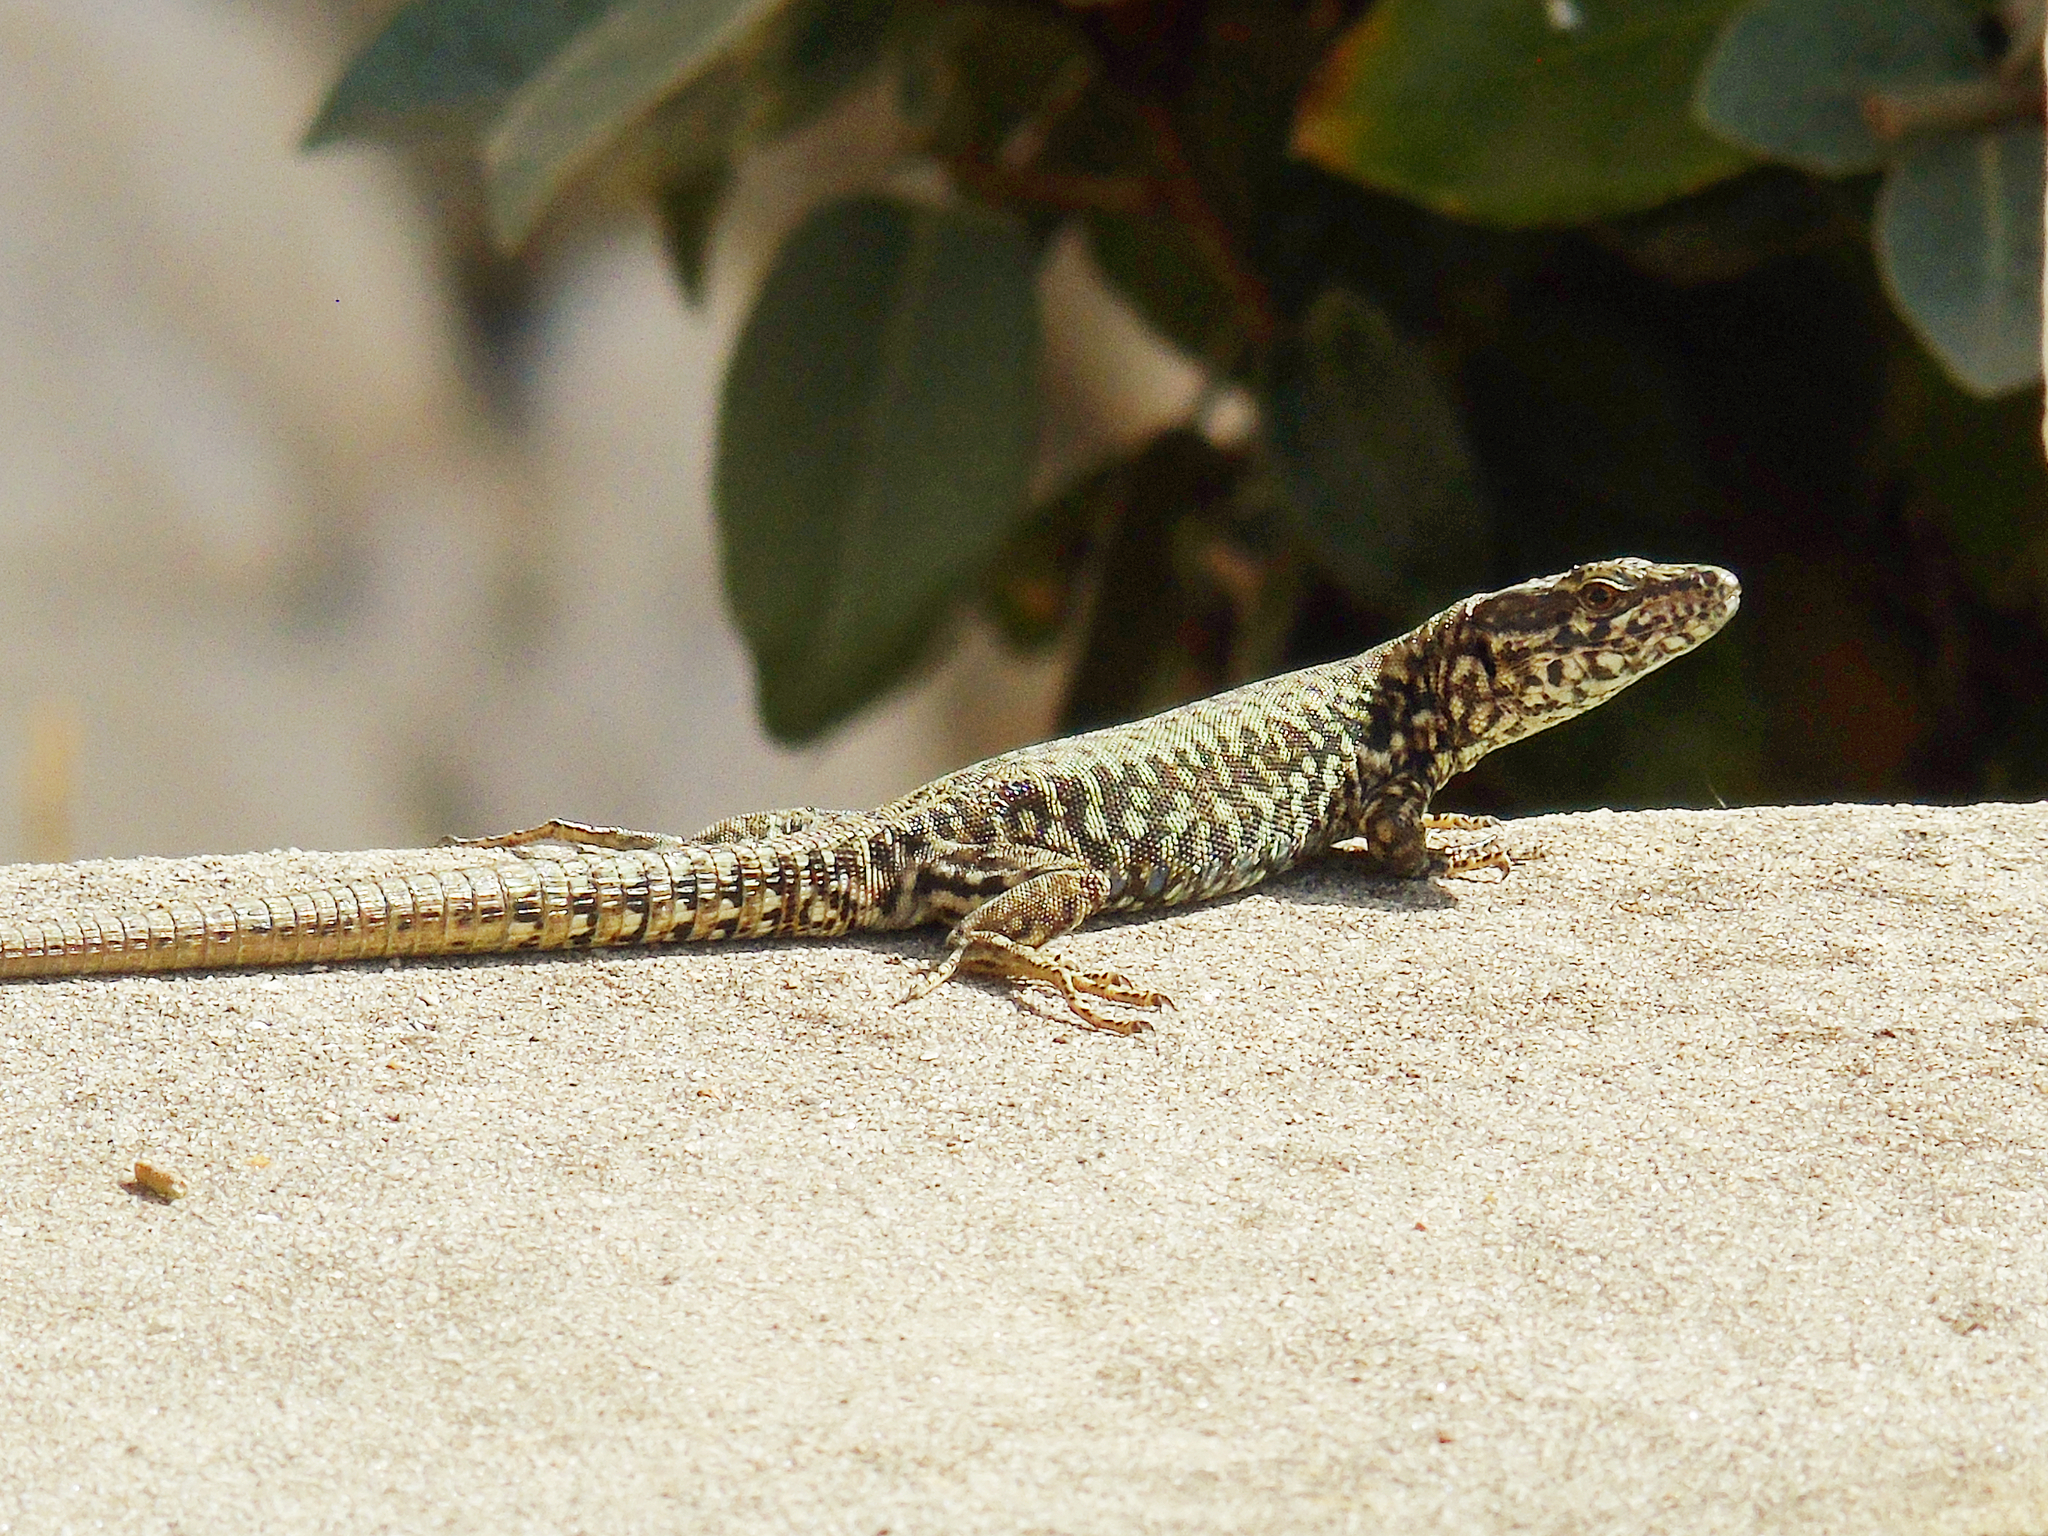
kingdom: Animalia
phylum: Chordata
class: Squamata
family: Lacertidae
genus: Podarcis
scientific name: Podarcis muralis
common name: Common wall lizard
